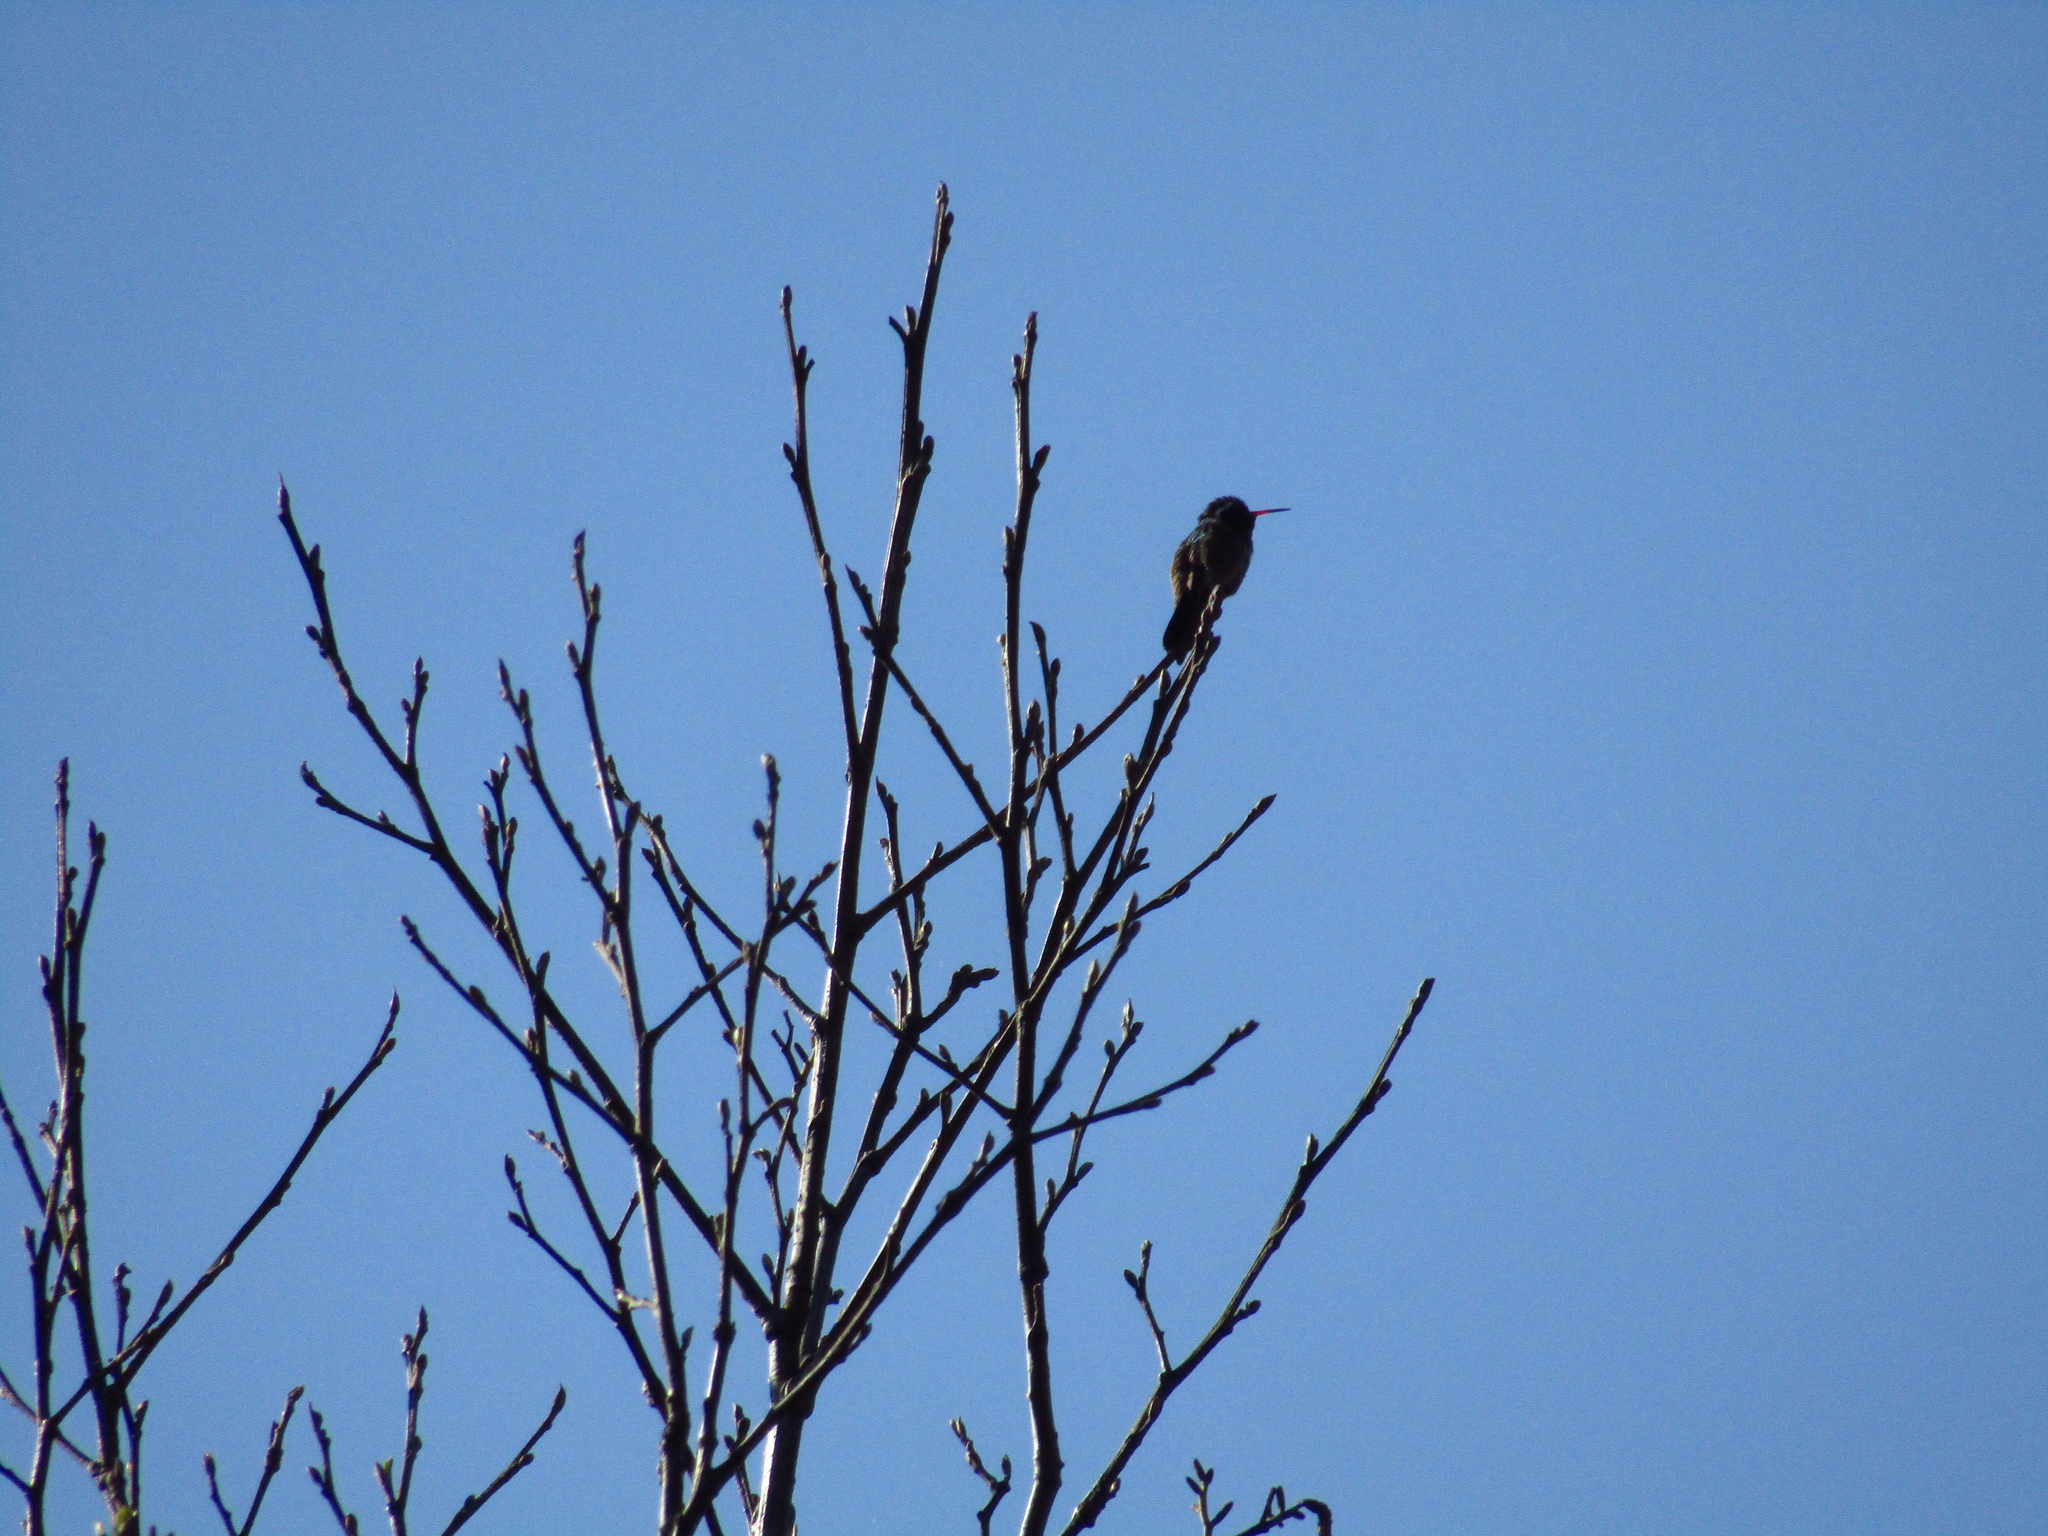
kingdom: Animalia
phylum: Chordata
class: Aves
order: Apodiformes
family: Trochilidae
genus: Basilinna
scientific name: Basilinna leucotis
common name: White-eared hummingbird
